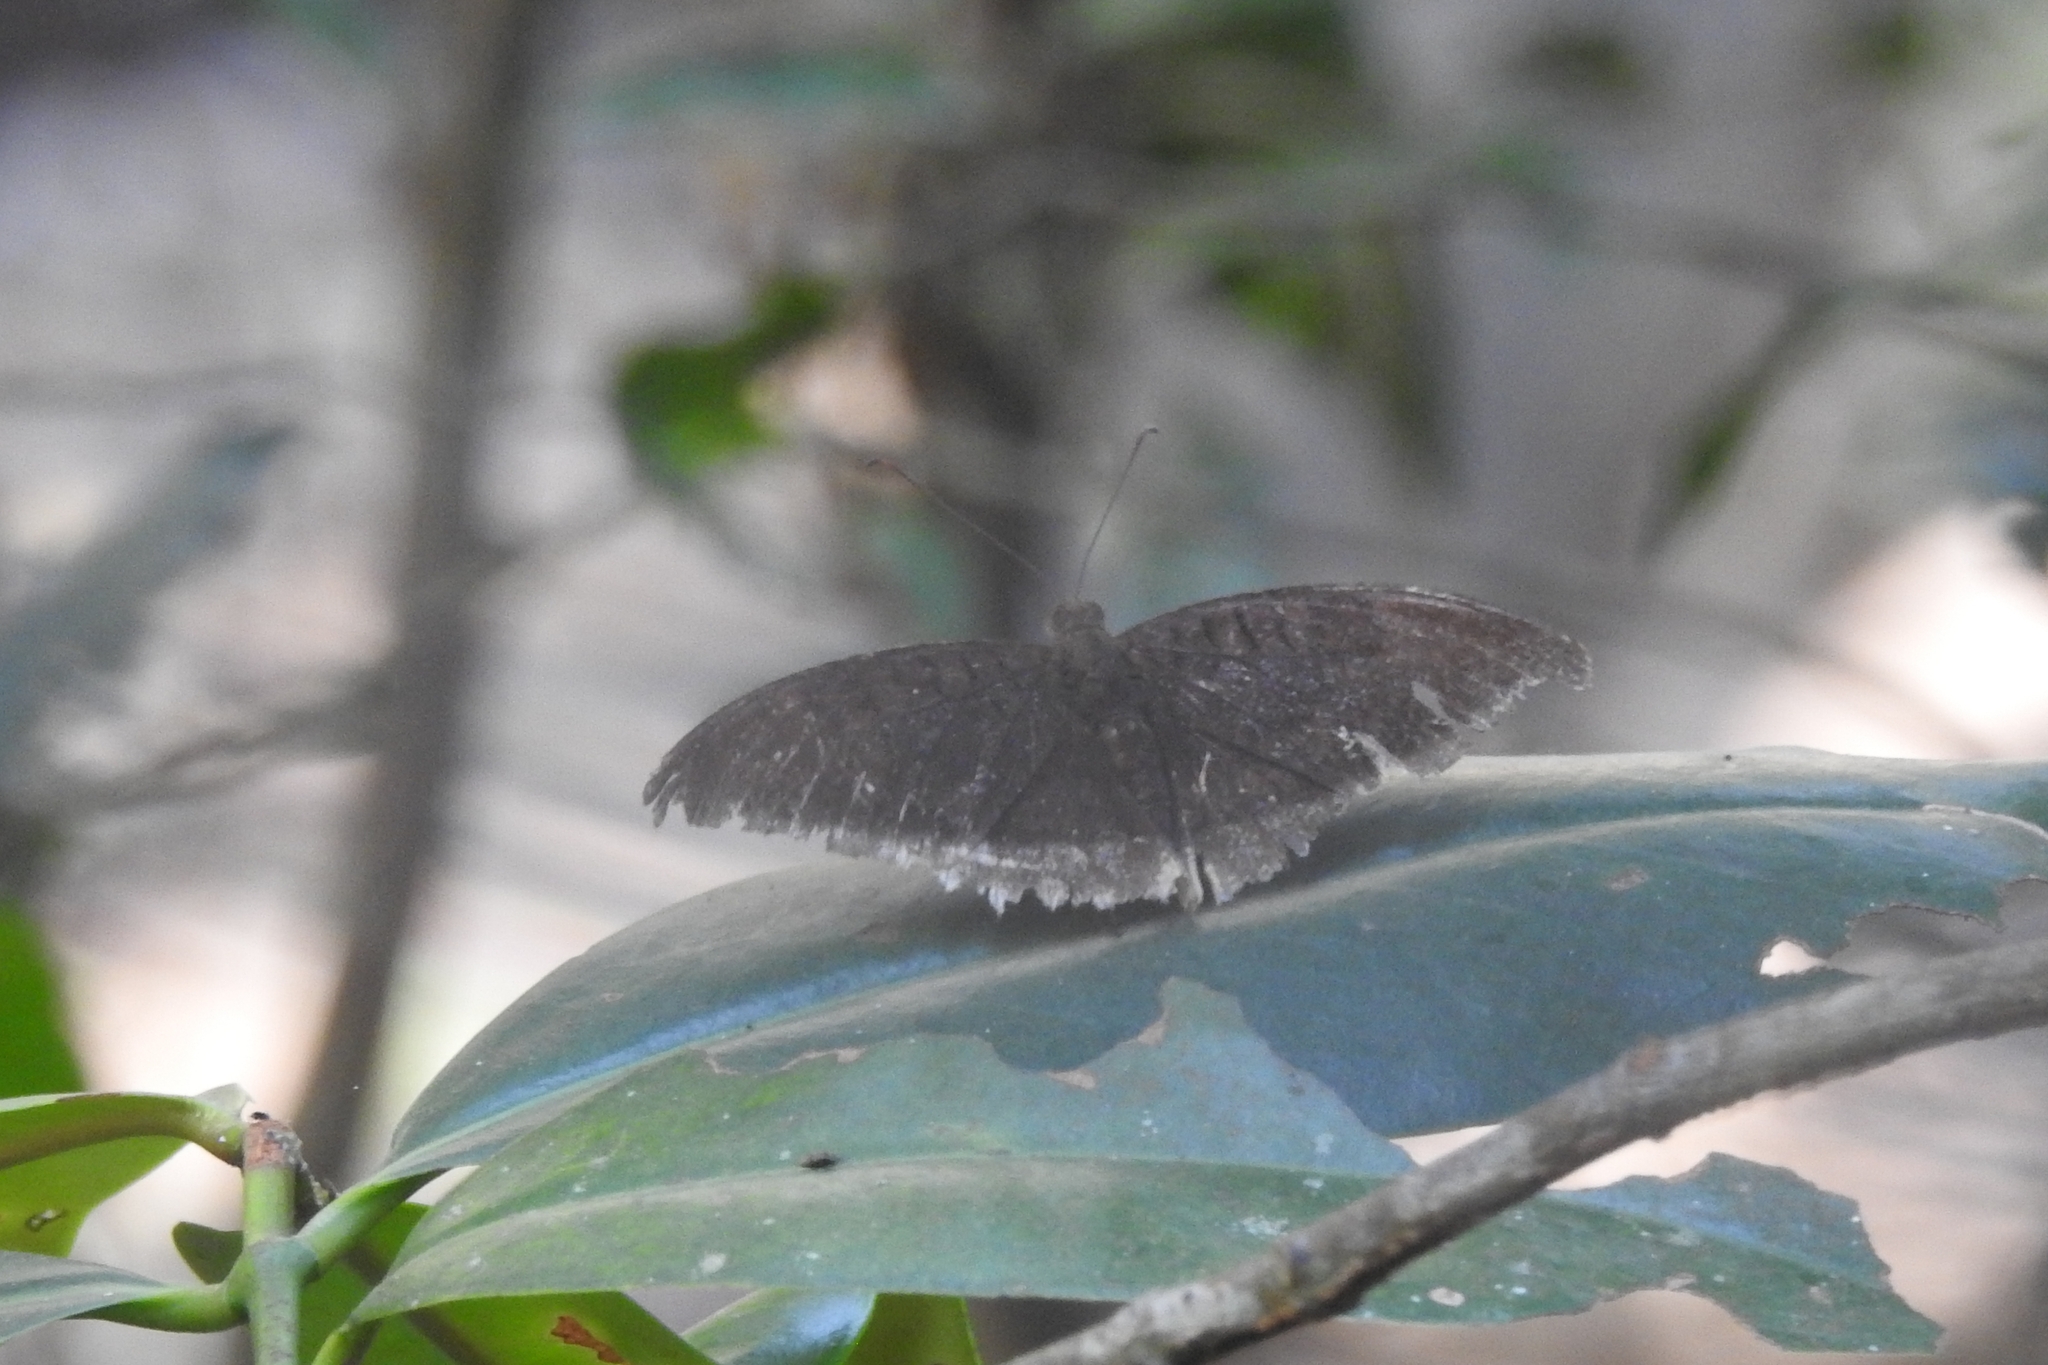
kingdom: Animalia
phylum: Arthropoda
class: Insecta
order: Lepidoptera
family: Nymphalidae
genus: Tanaecia
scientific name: Tanaecia lepidea
